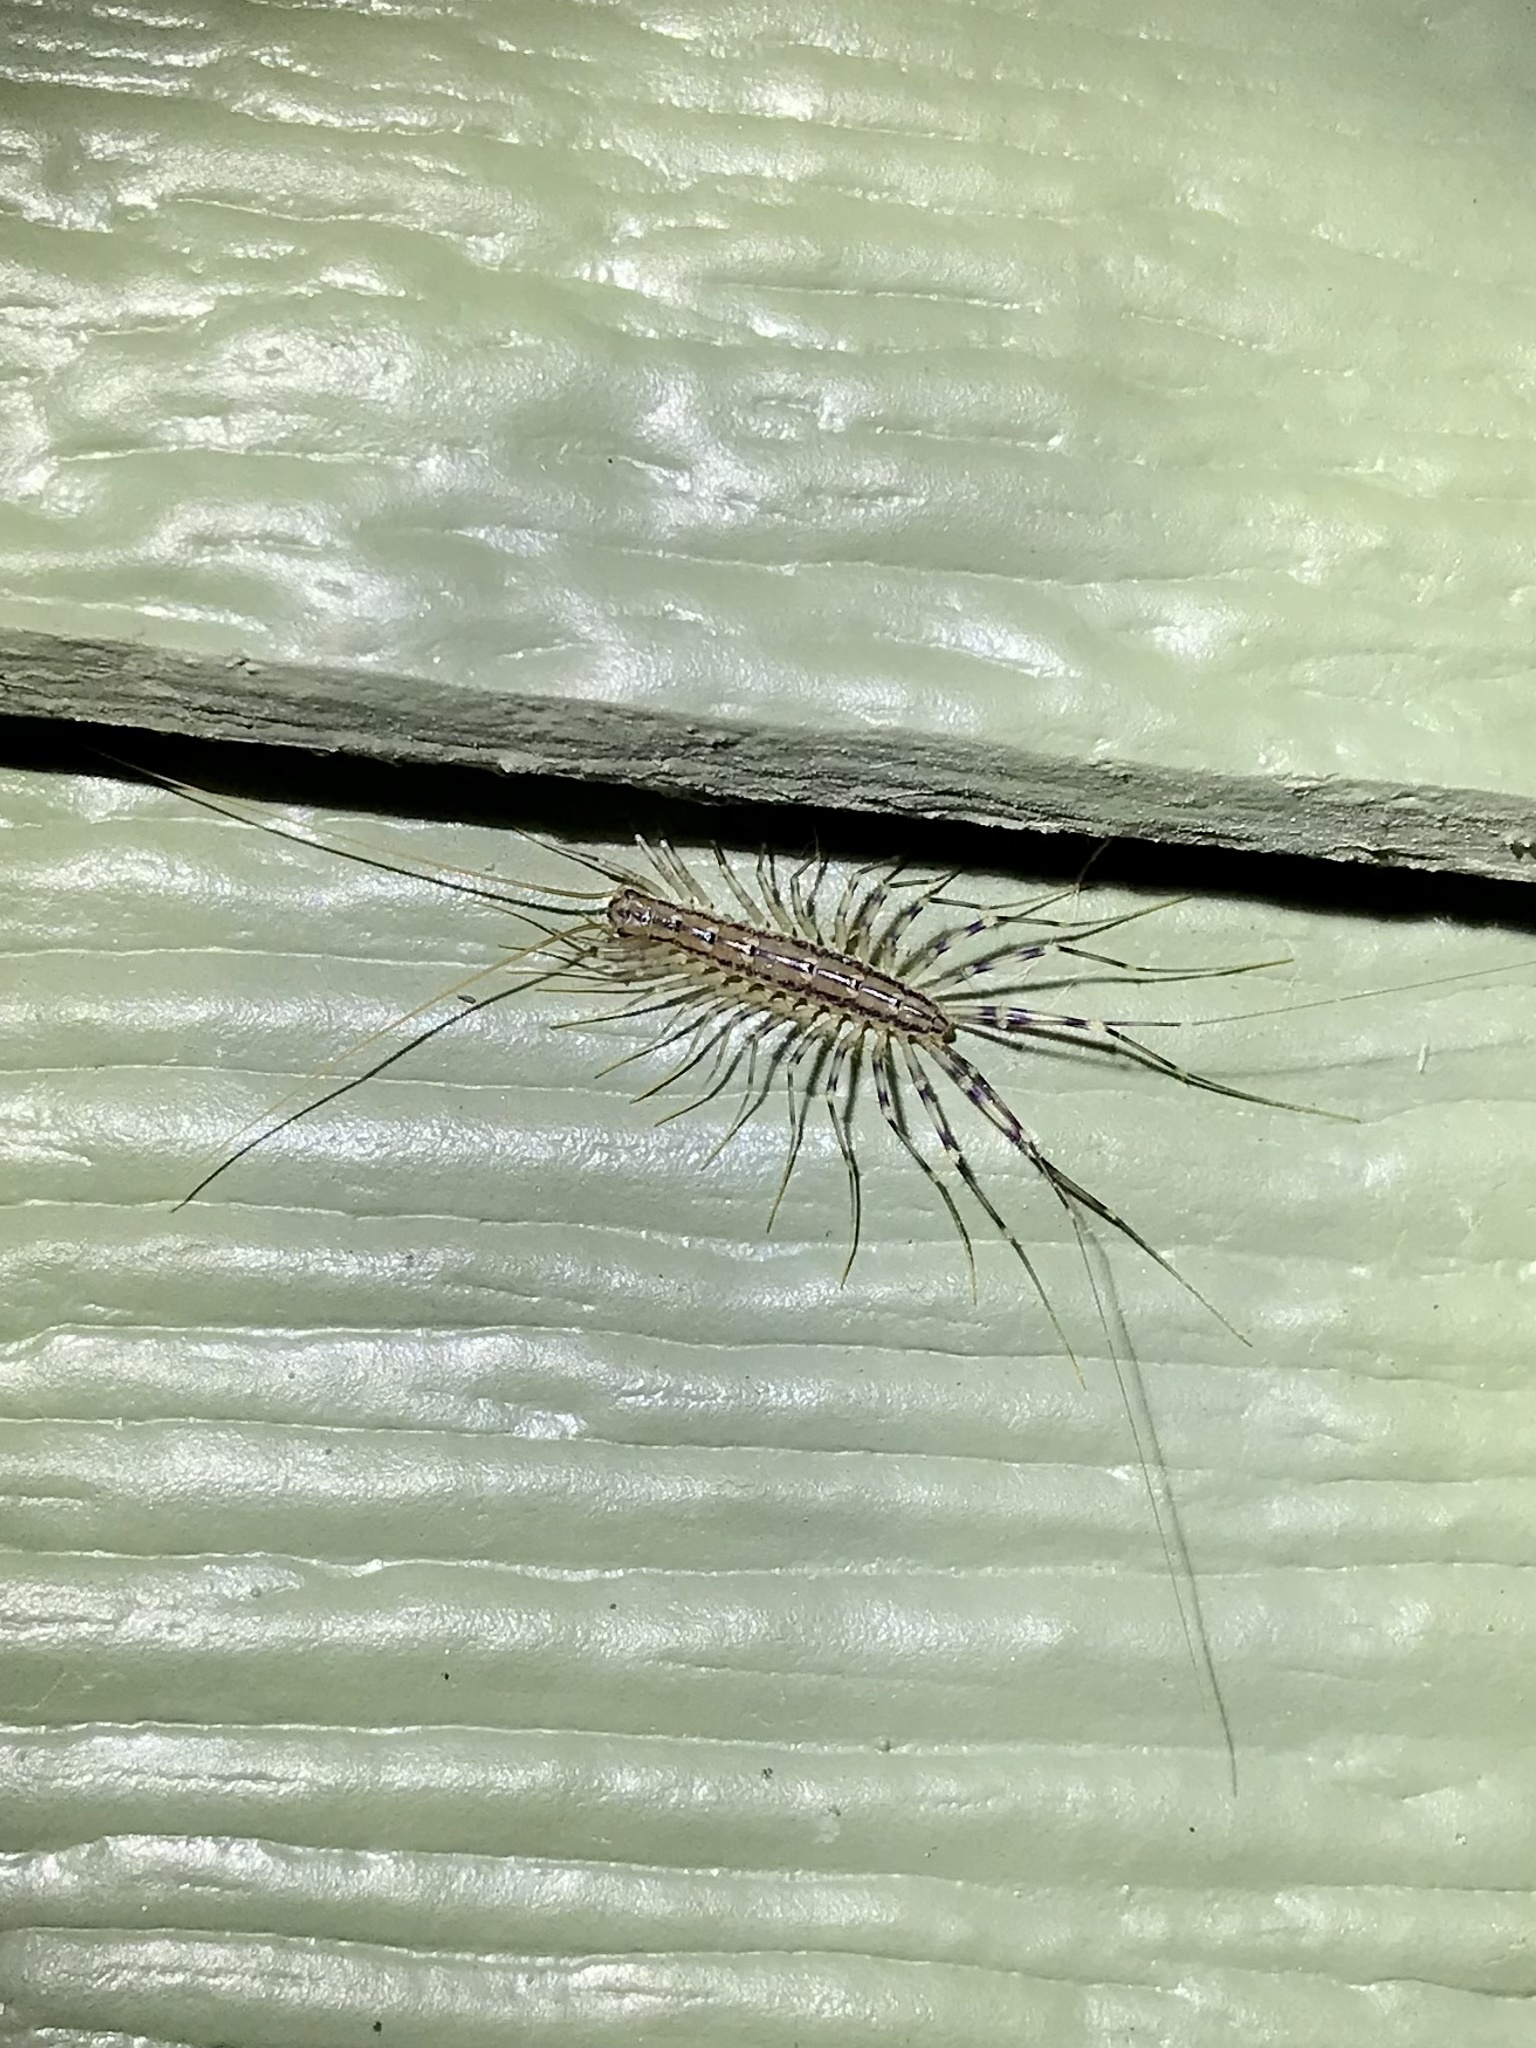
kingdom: Animalia
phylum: Arthropoda
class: Chilopoda
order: Scutigeromorpha
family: Scutigeridae
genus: Scutigera
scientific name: Scutigera coleoptrata
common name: House centipede
